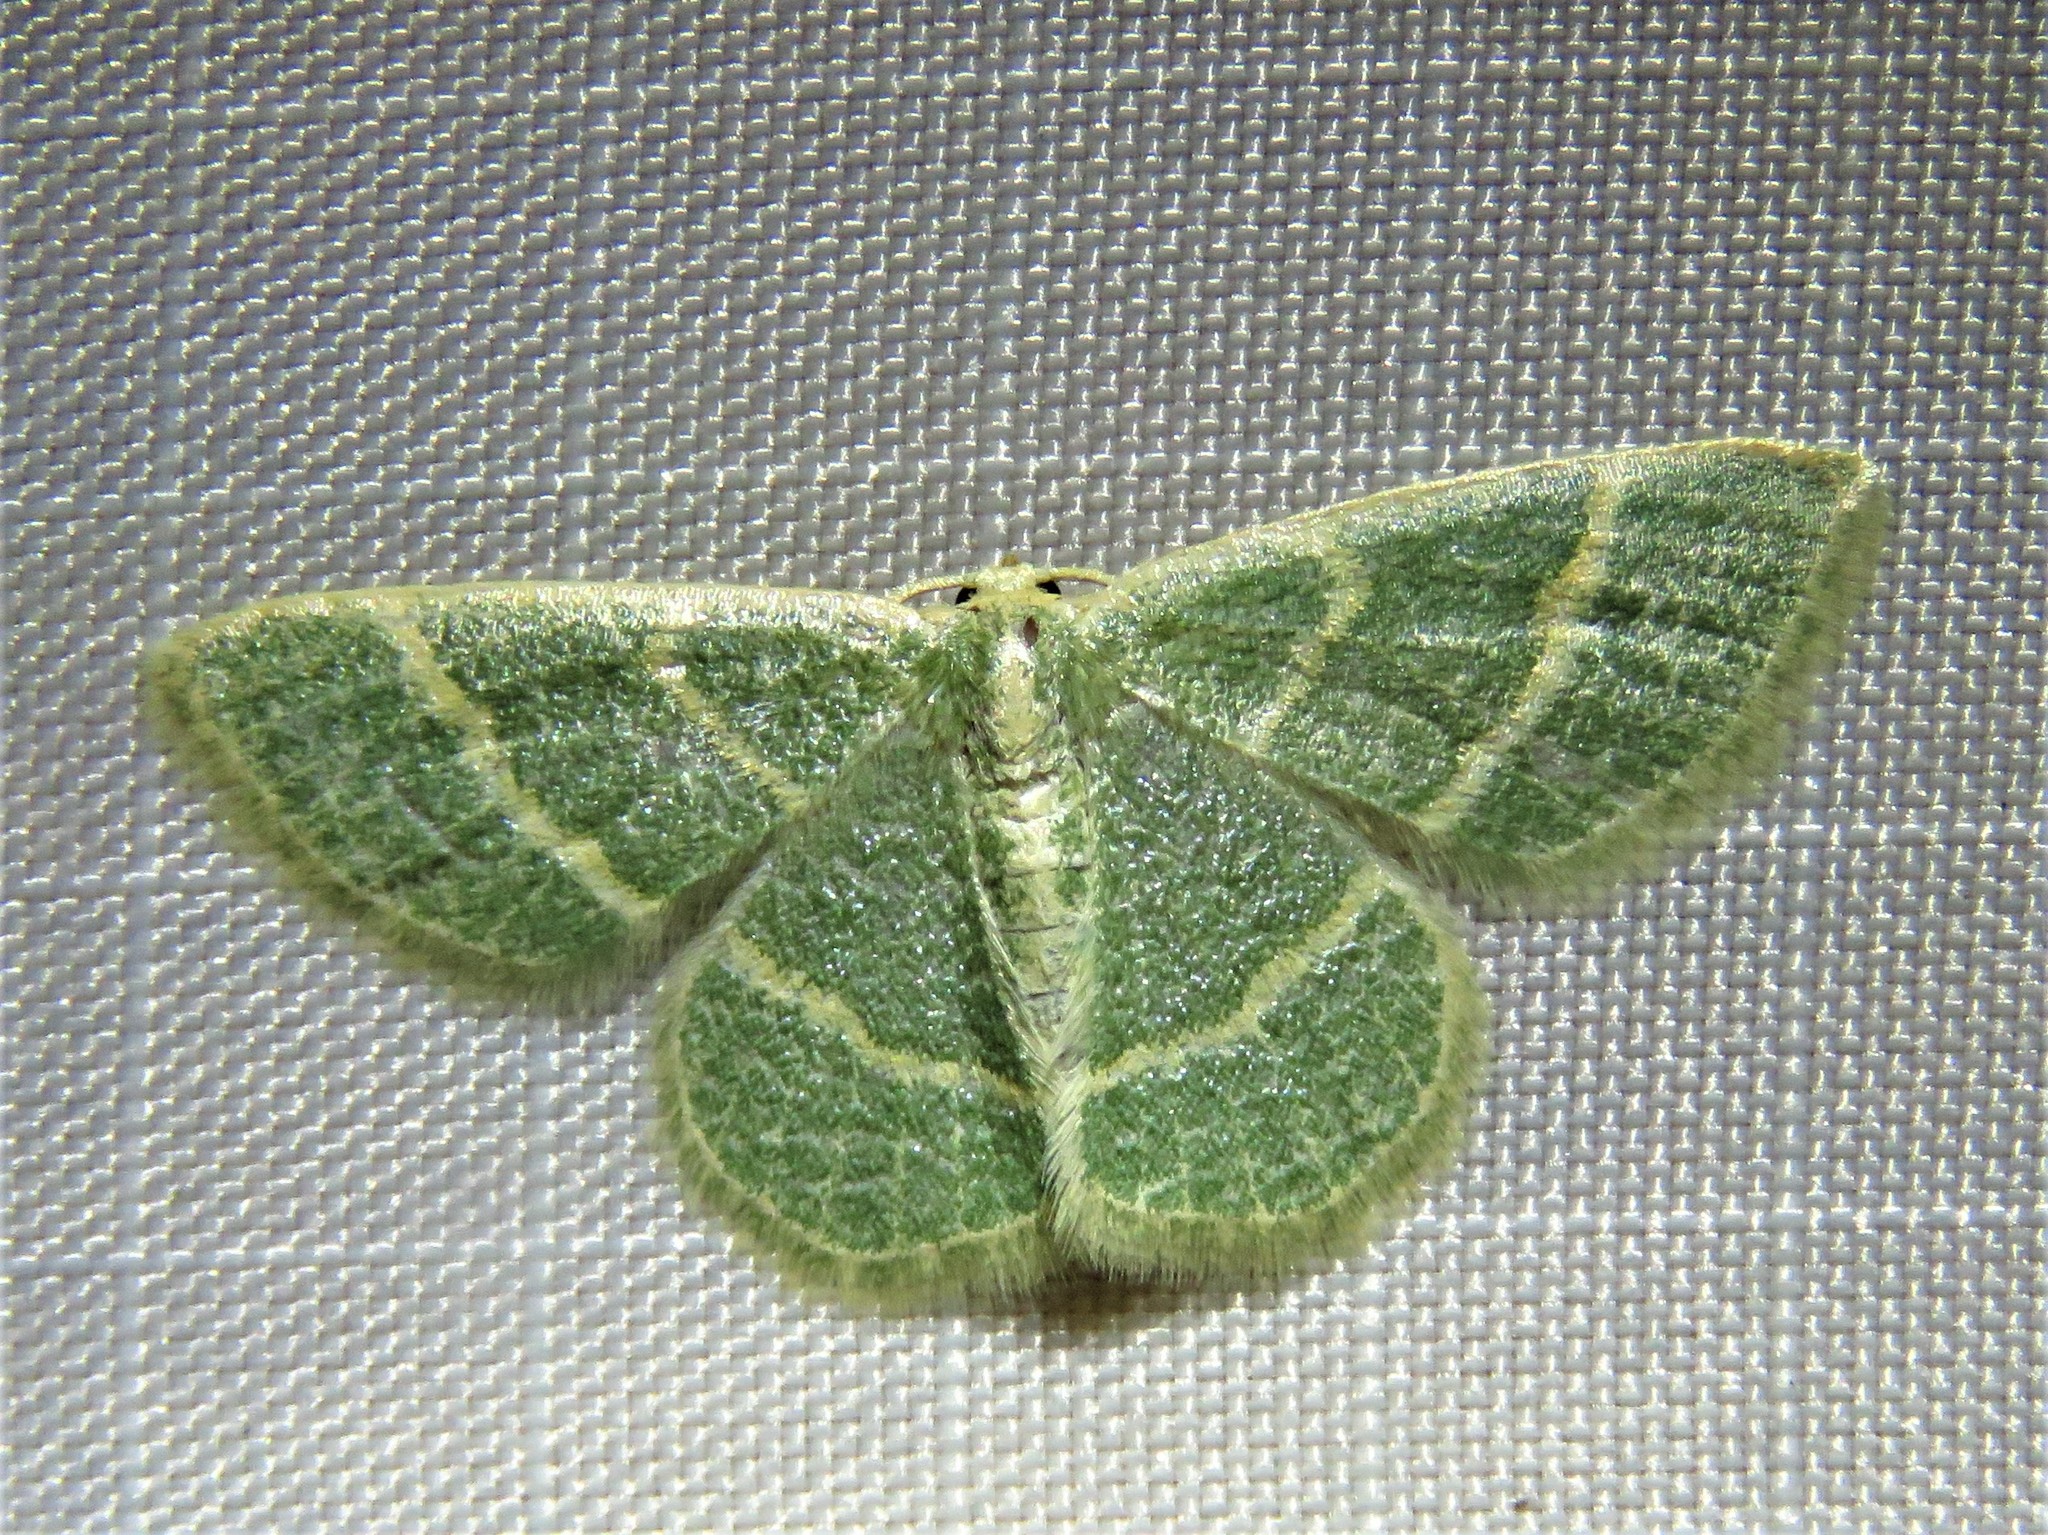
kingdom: Animalia
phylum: Arthropoda
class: Insecta
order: Lepidoptera
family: Geometridae
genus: Chlorochlamys
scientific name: Chlorochlamys chloroleucaria
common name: Blackberry looper
